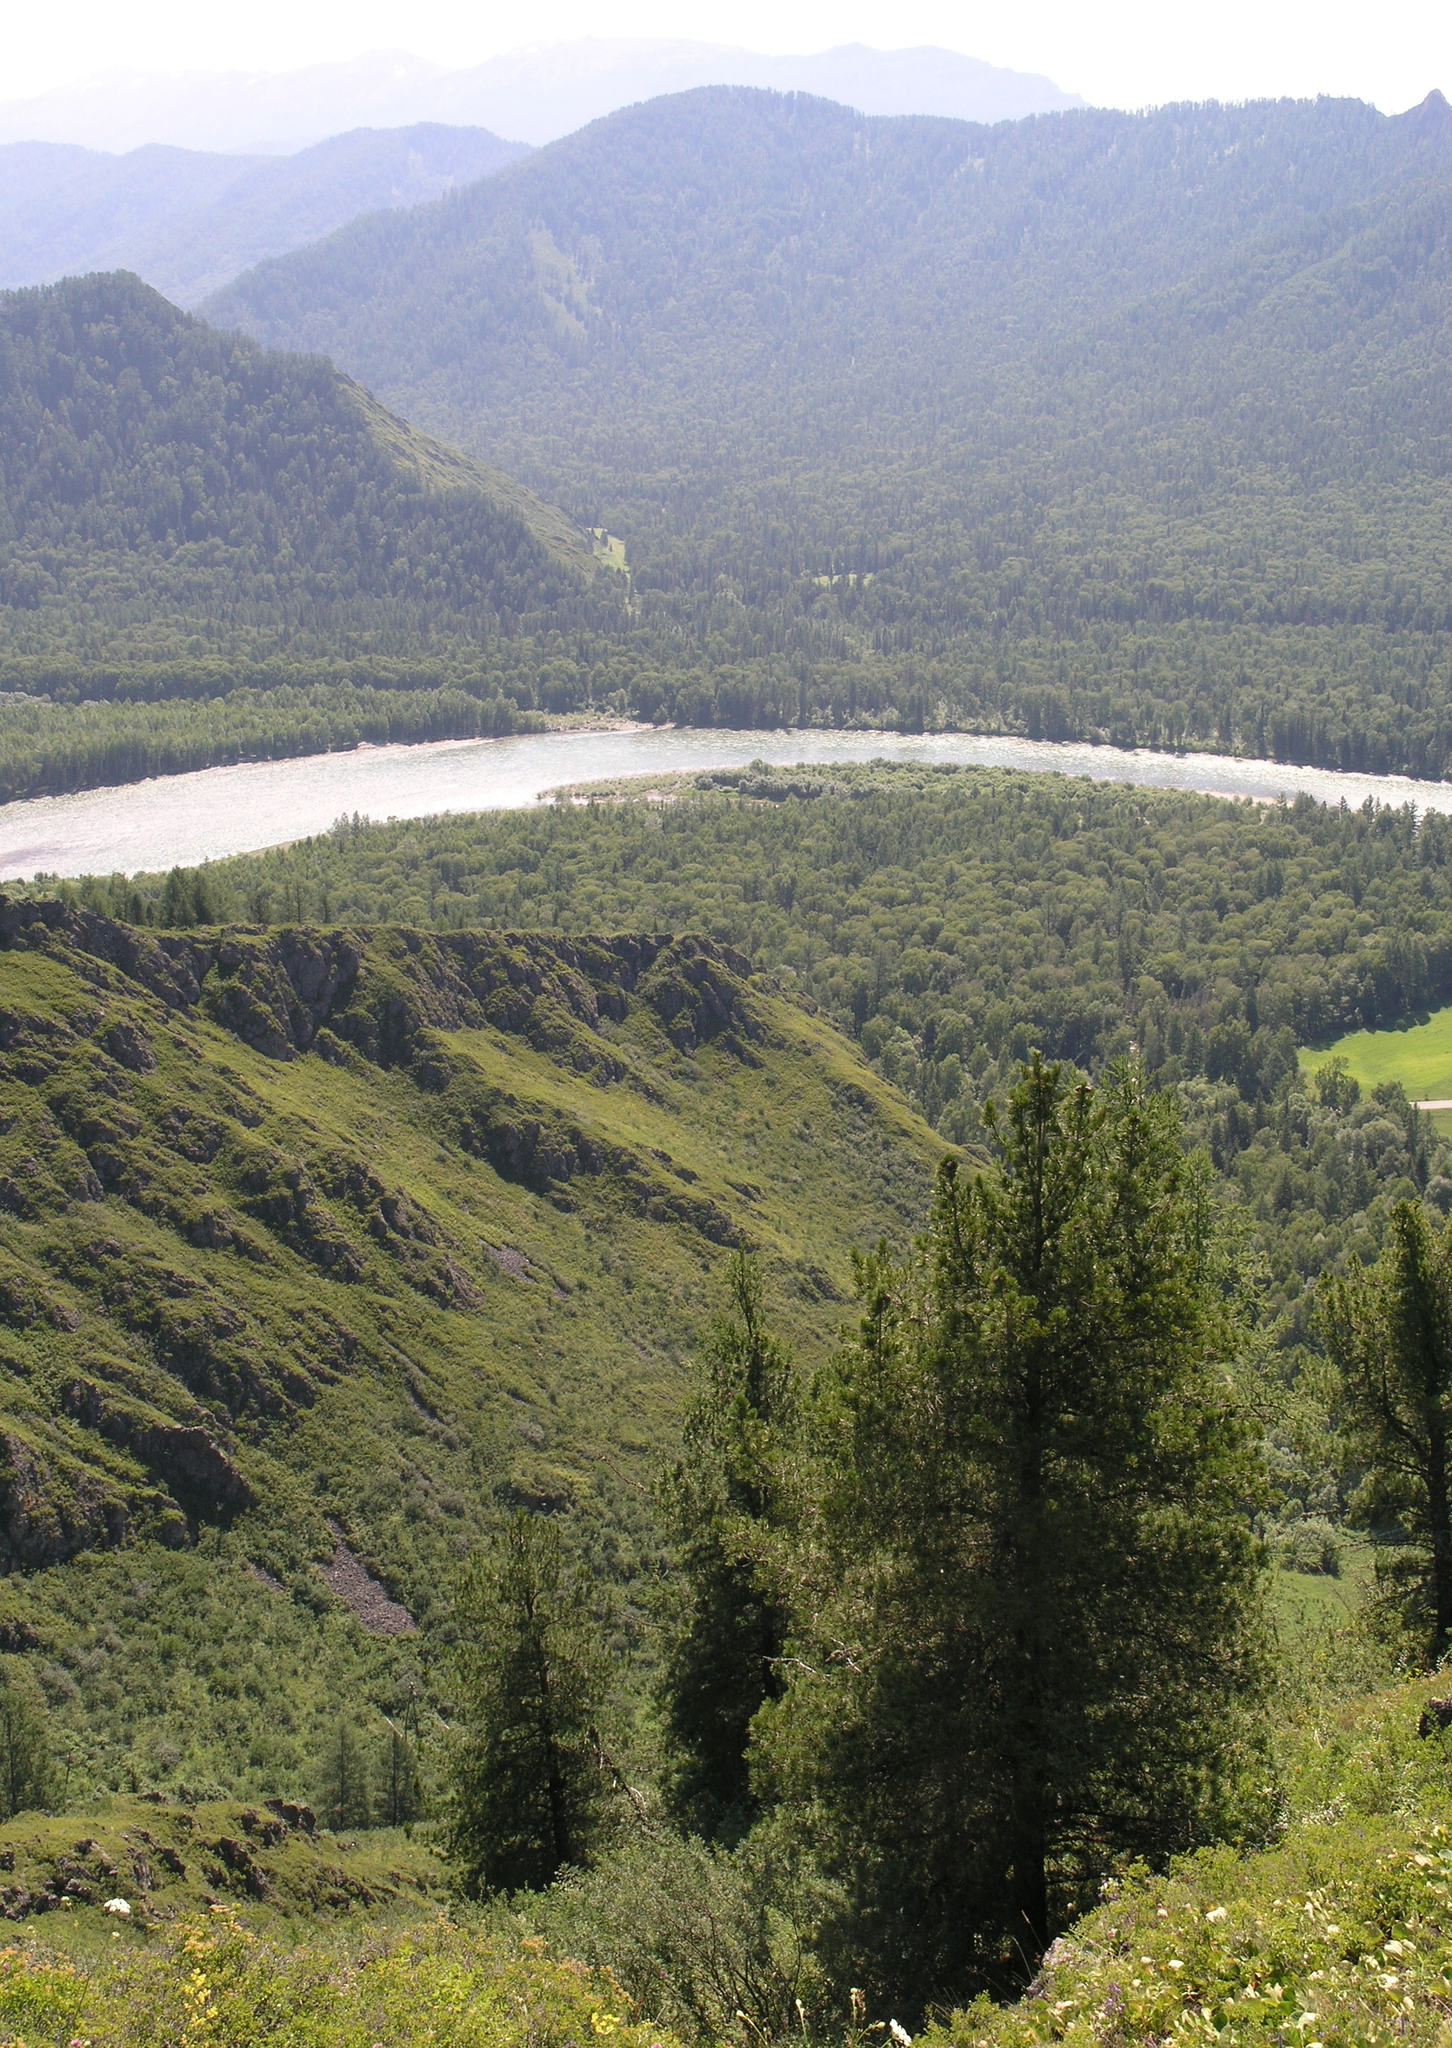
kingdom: Plantae
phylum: Tracheophyta
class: Pinopsida
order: Pinales
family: Pinaceae
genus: Pinus
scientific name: Pinus sibirica
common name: Siberian pine
